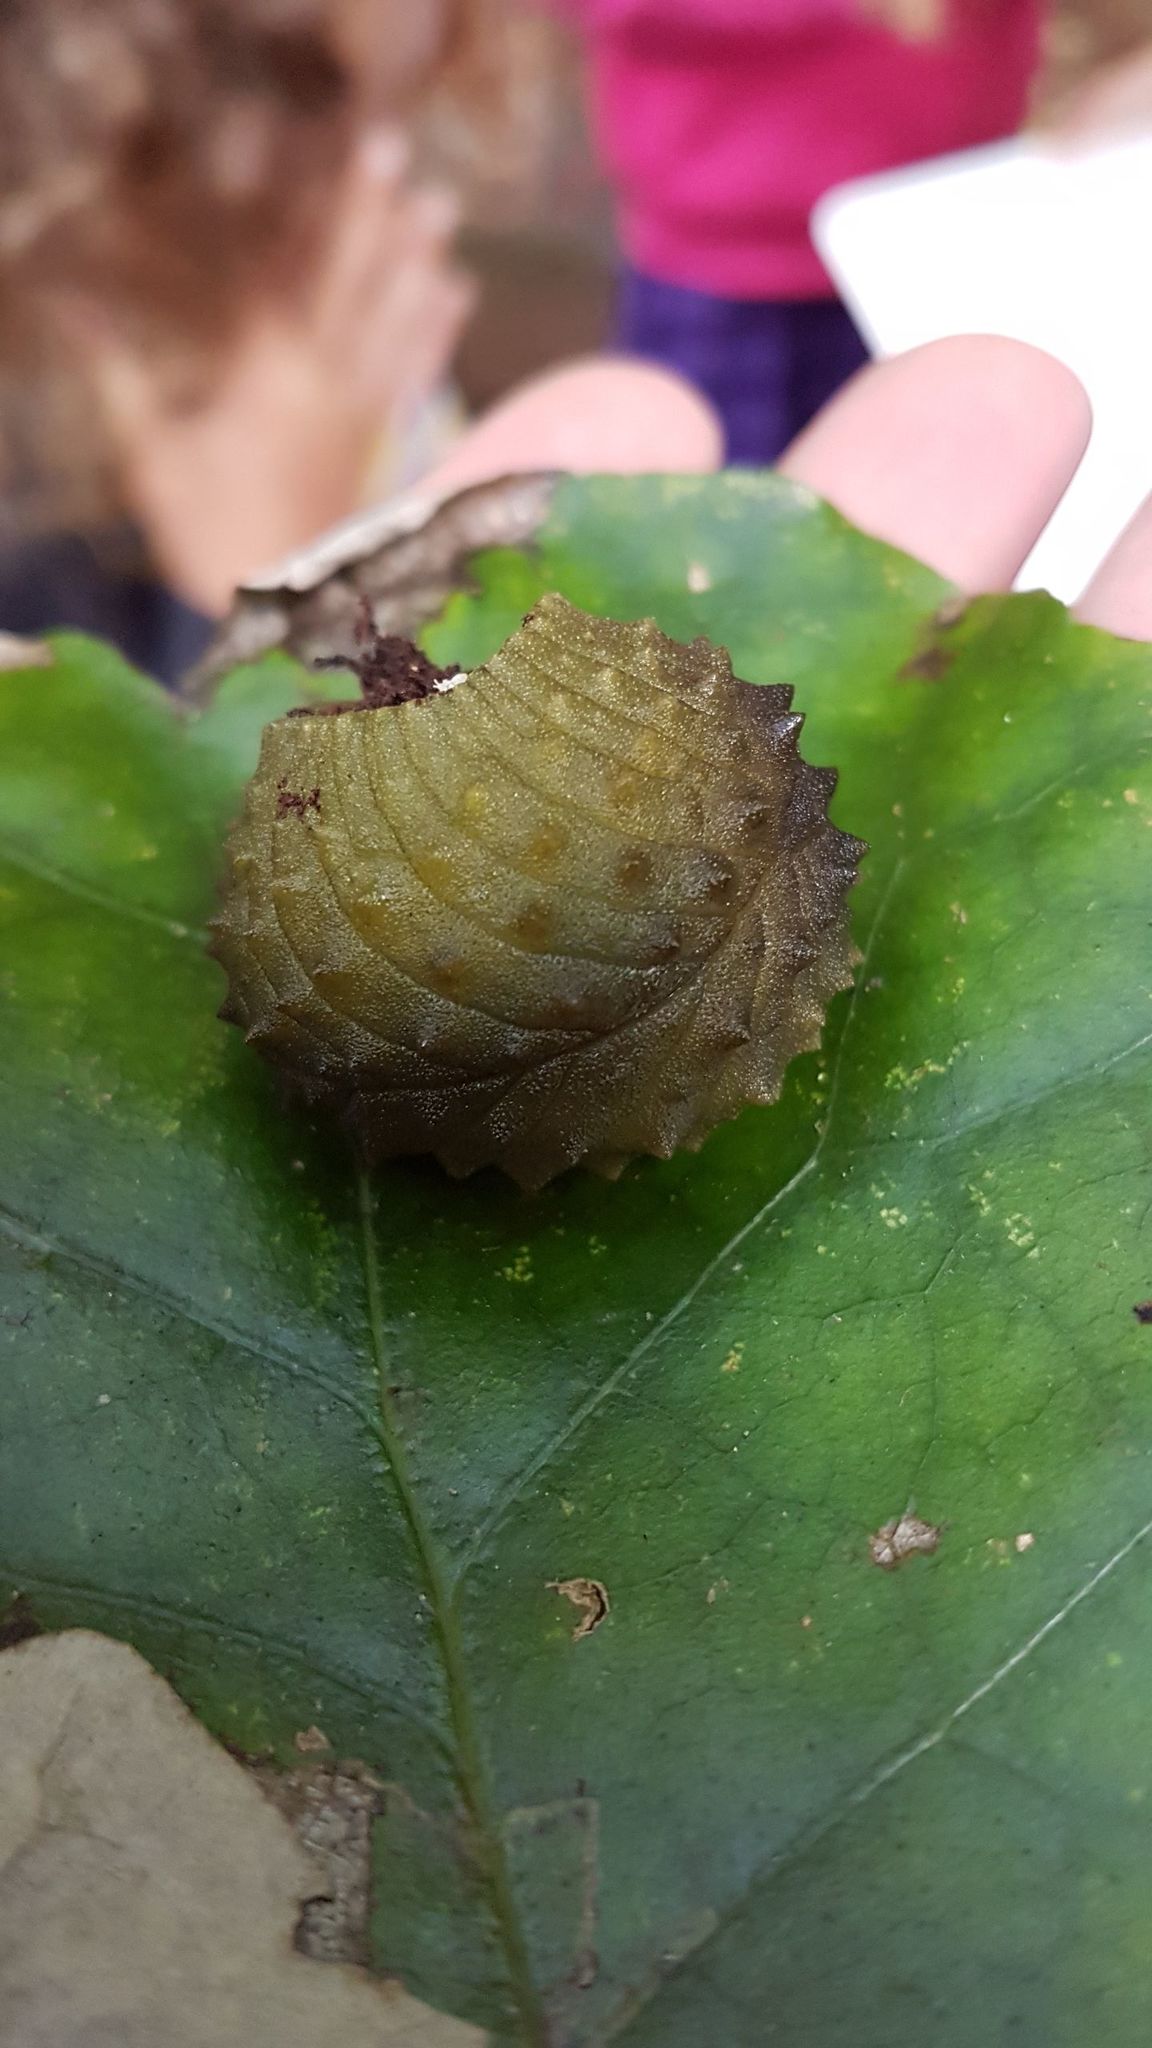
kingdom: Animalia
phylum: Mollusca
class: Gastropoda
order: Stylommatophora
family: Athoracophoridae
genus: Athoracophorus
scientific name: Athoracophorus papillatus
